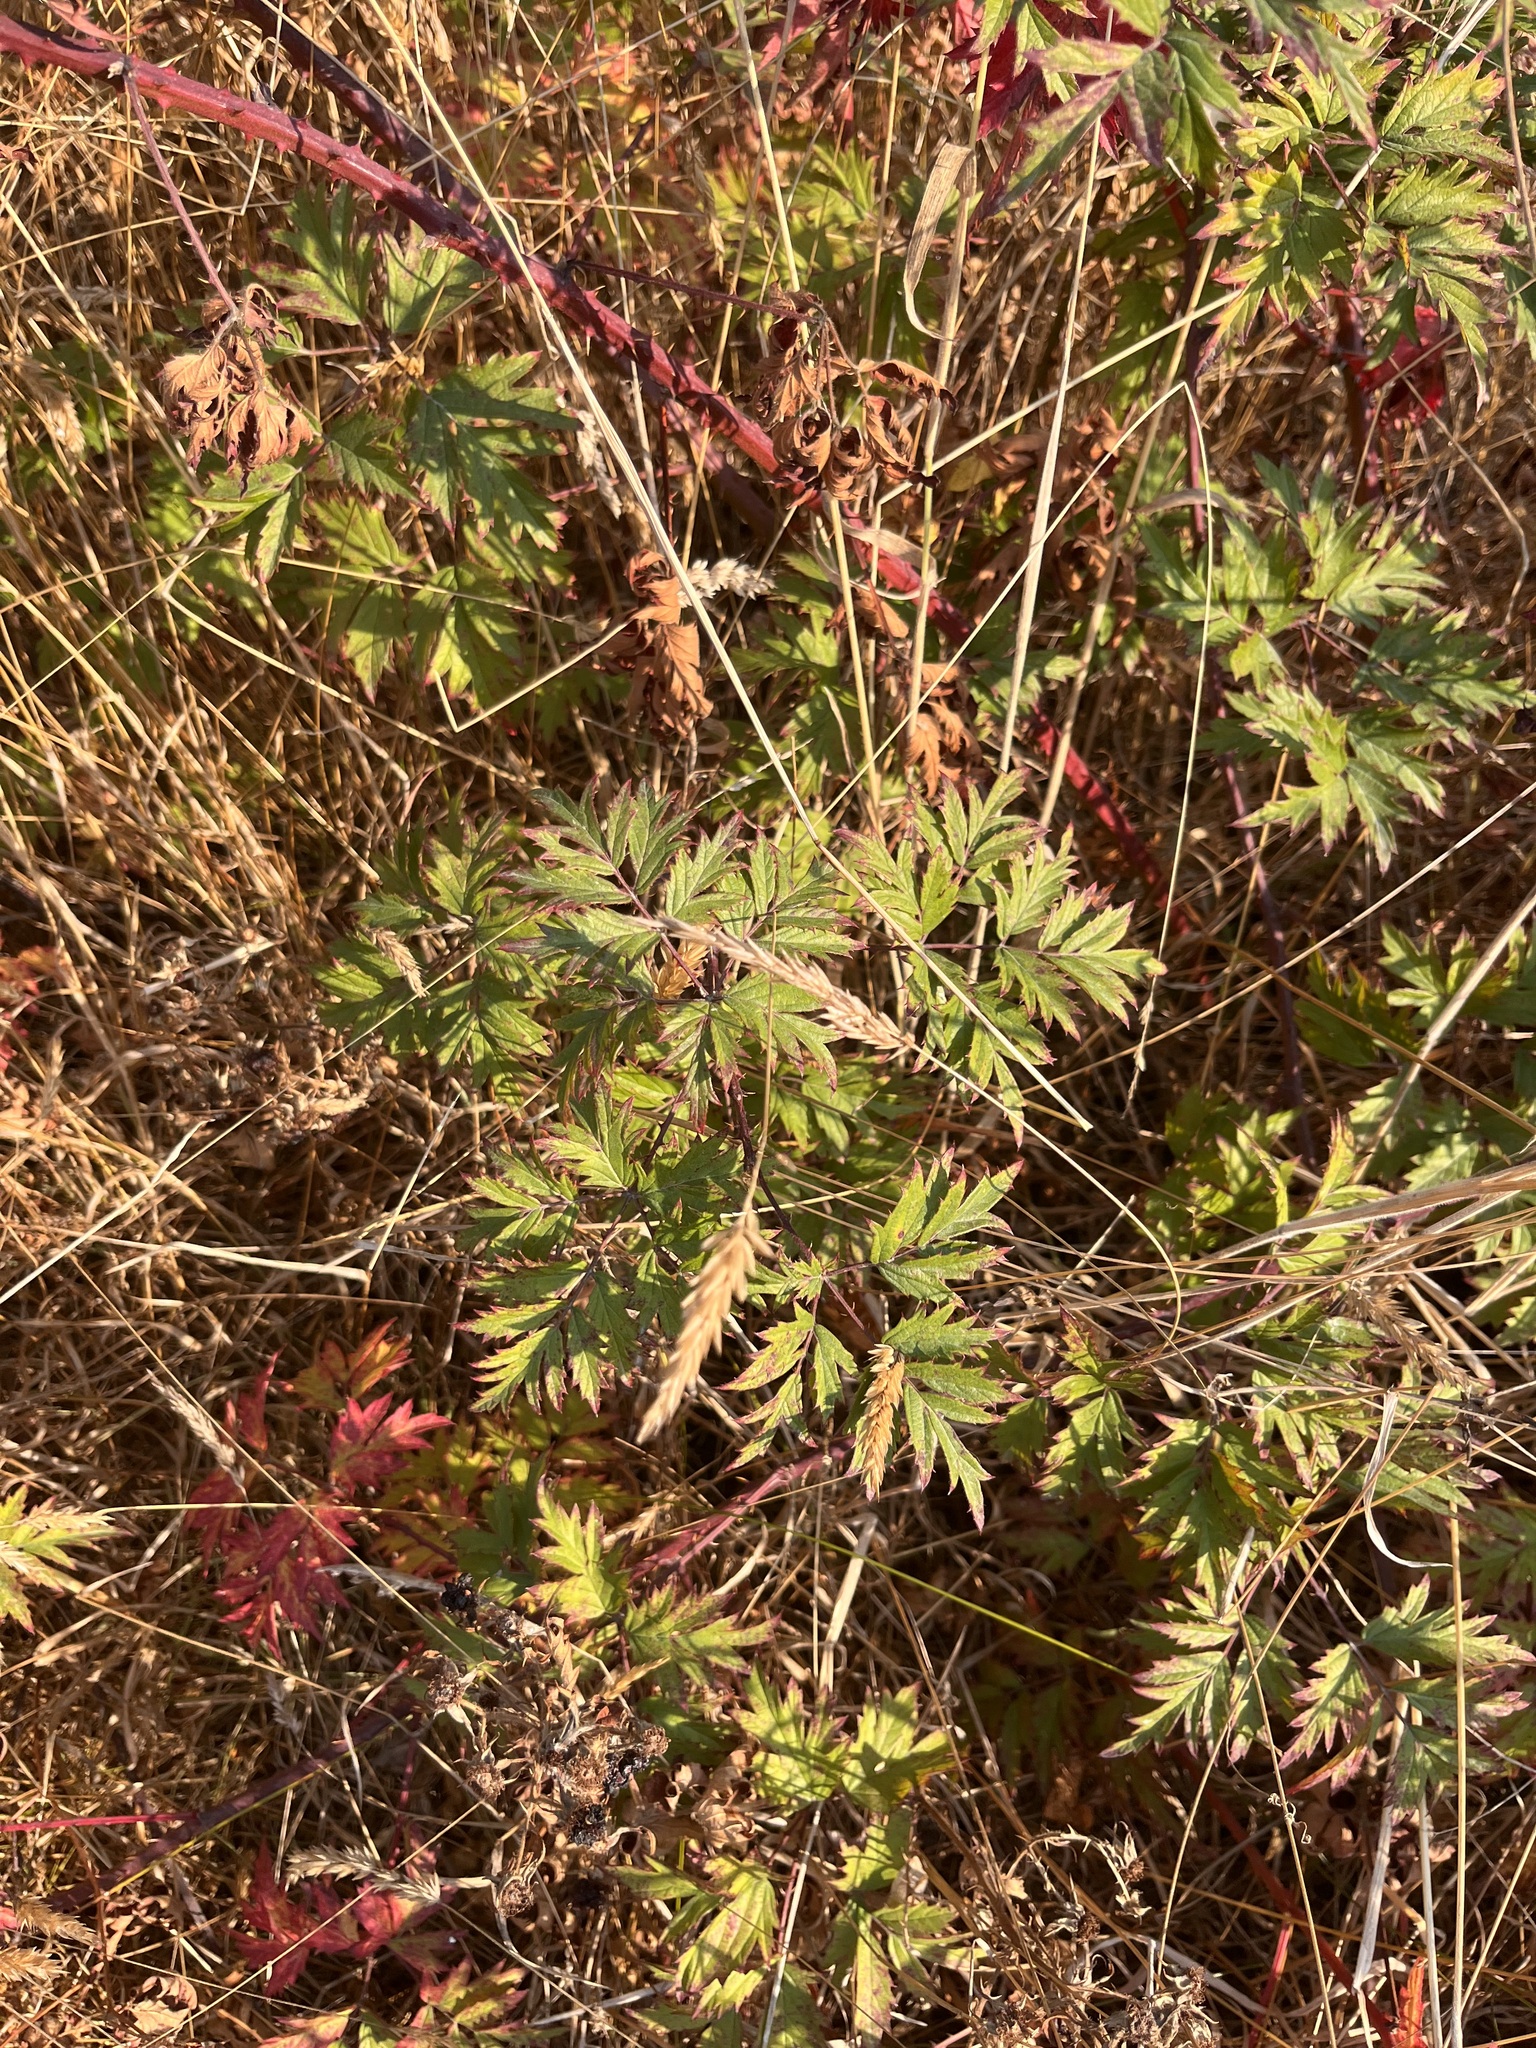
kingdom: Plantae
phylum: Tracheophyta
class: Magnoliopsida
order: Rosales
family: Rosaceae
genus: Rubus
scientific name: Rubus laciniatus
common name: Evergreen blackberry
